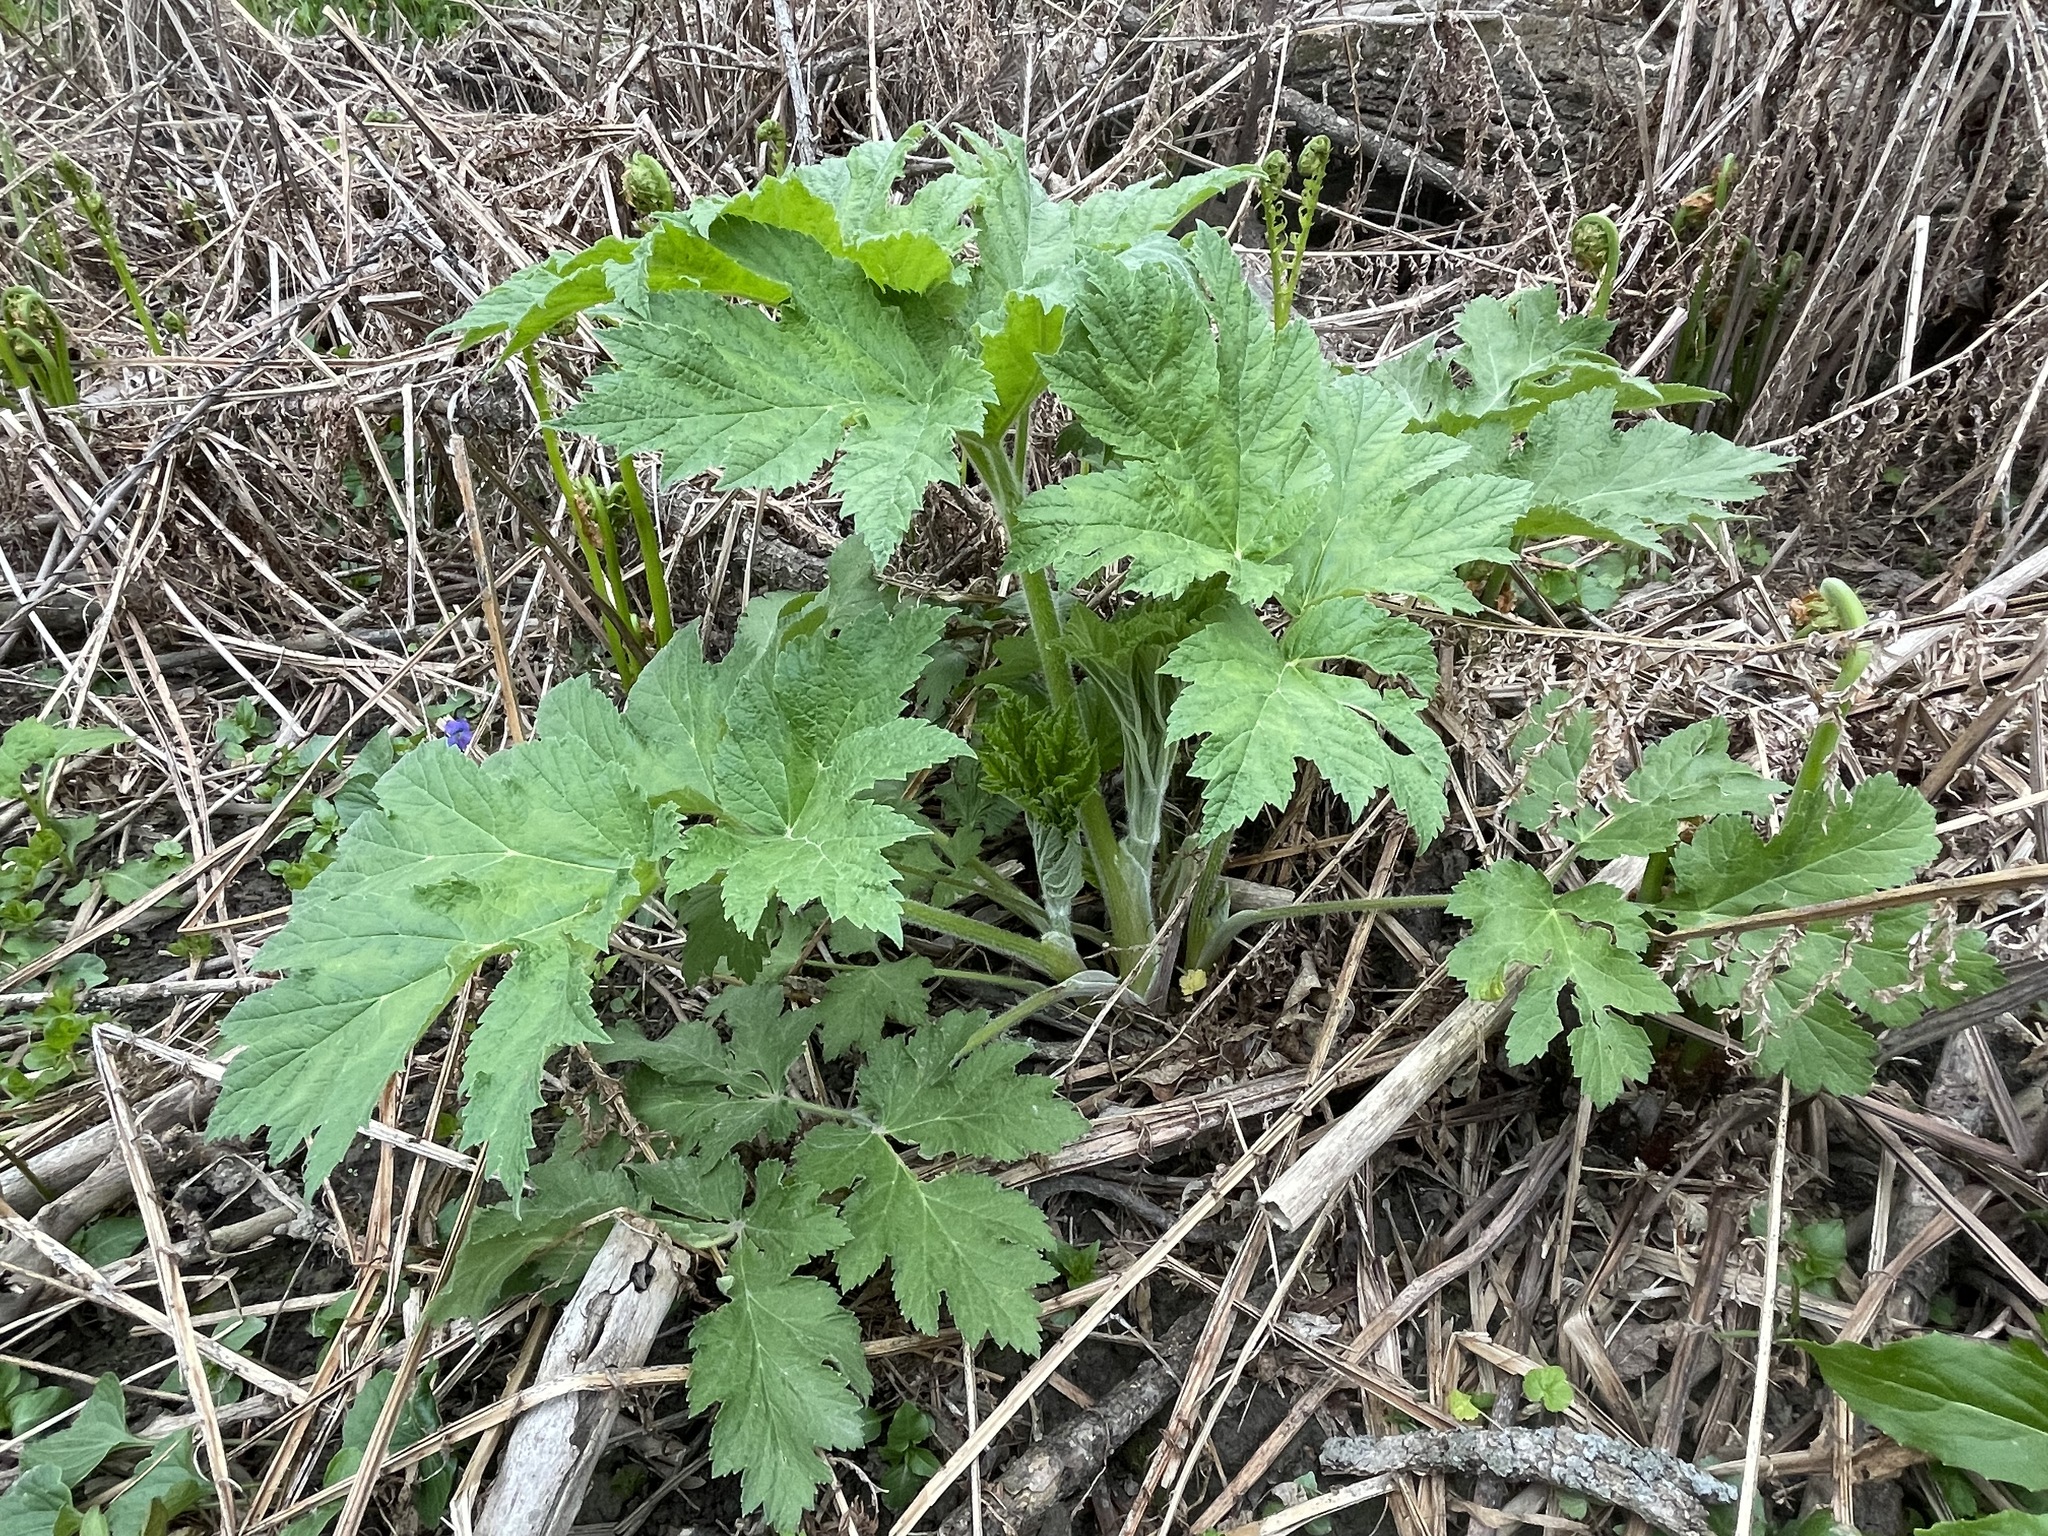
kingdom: Plantae
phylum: Tracheophyta
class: Magnoliopsida
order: Apiales
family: Apiaceae
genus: Heracleum
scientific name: Heracleum maximum
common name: American cow parsnip
